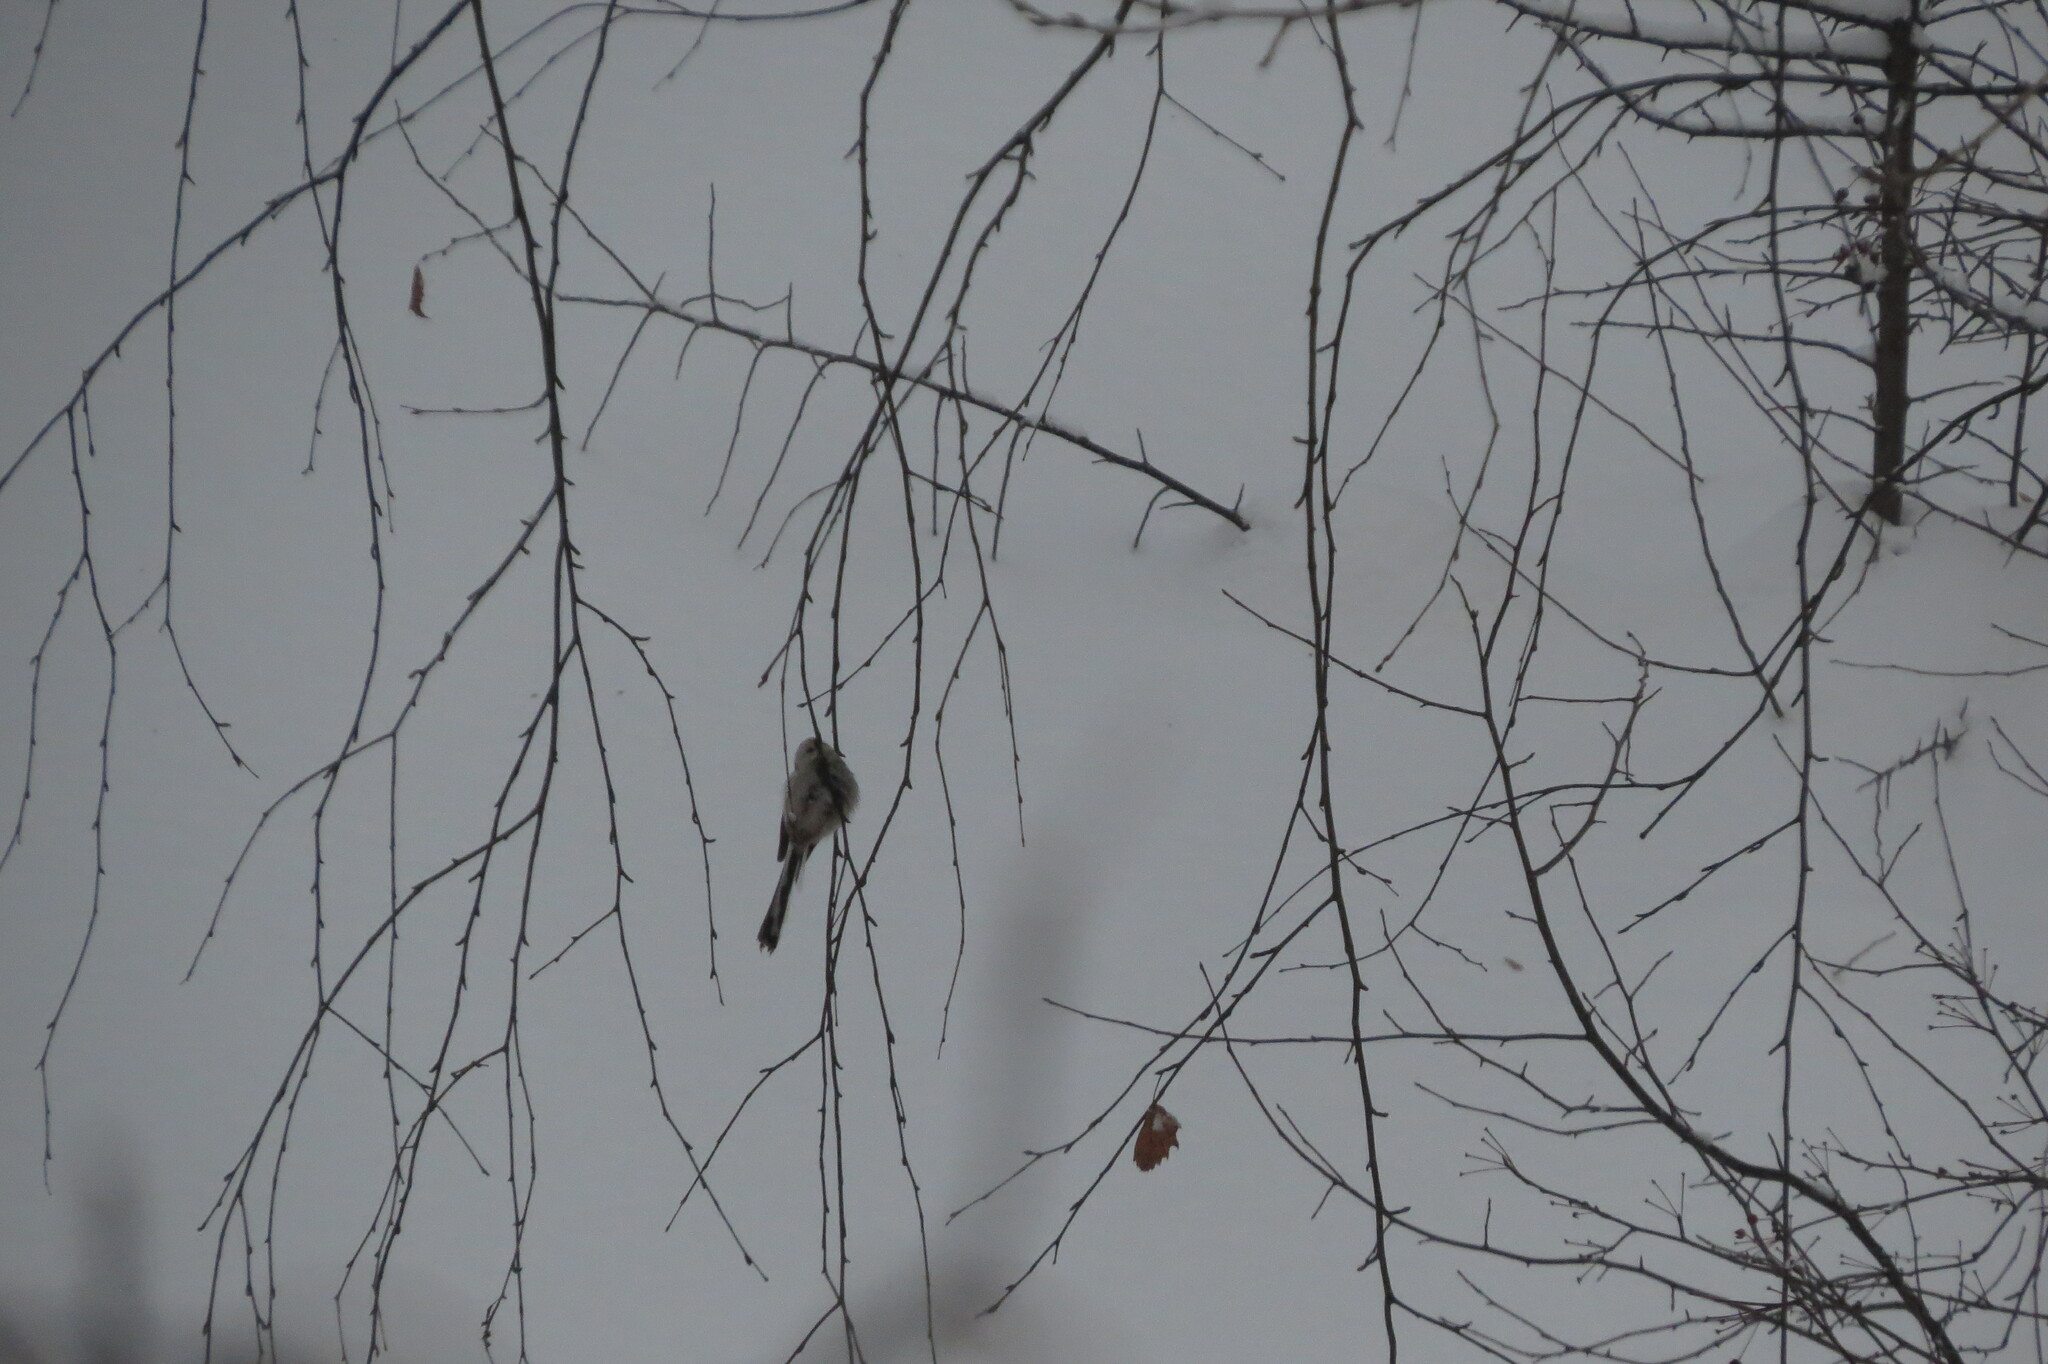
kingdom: Animalia
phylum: Chordata
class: Aves
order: Passeriformes
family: Aegithalidae
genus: Aegithalos
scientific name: Aegithalos caudatus
